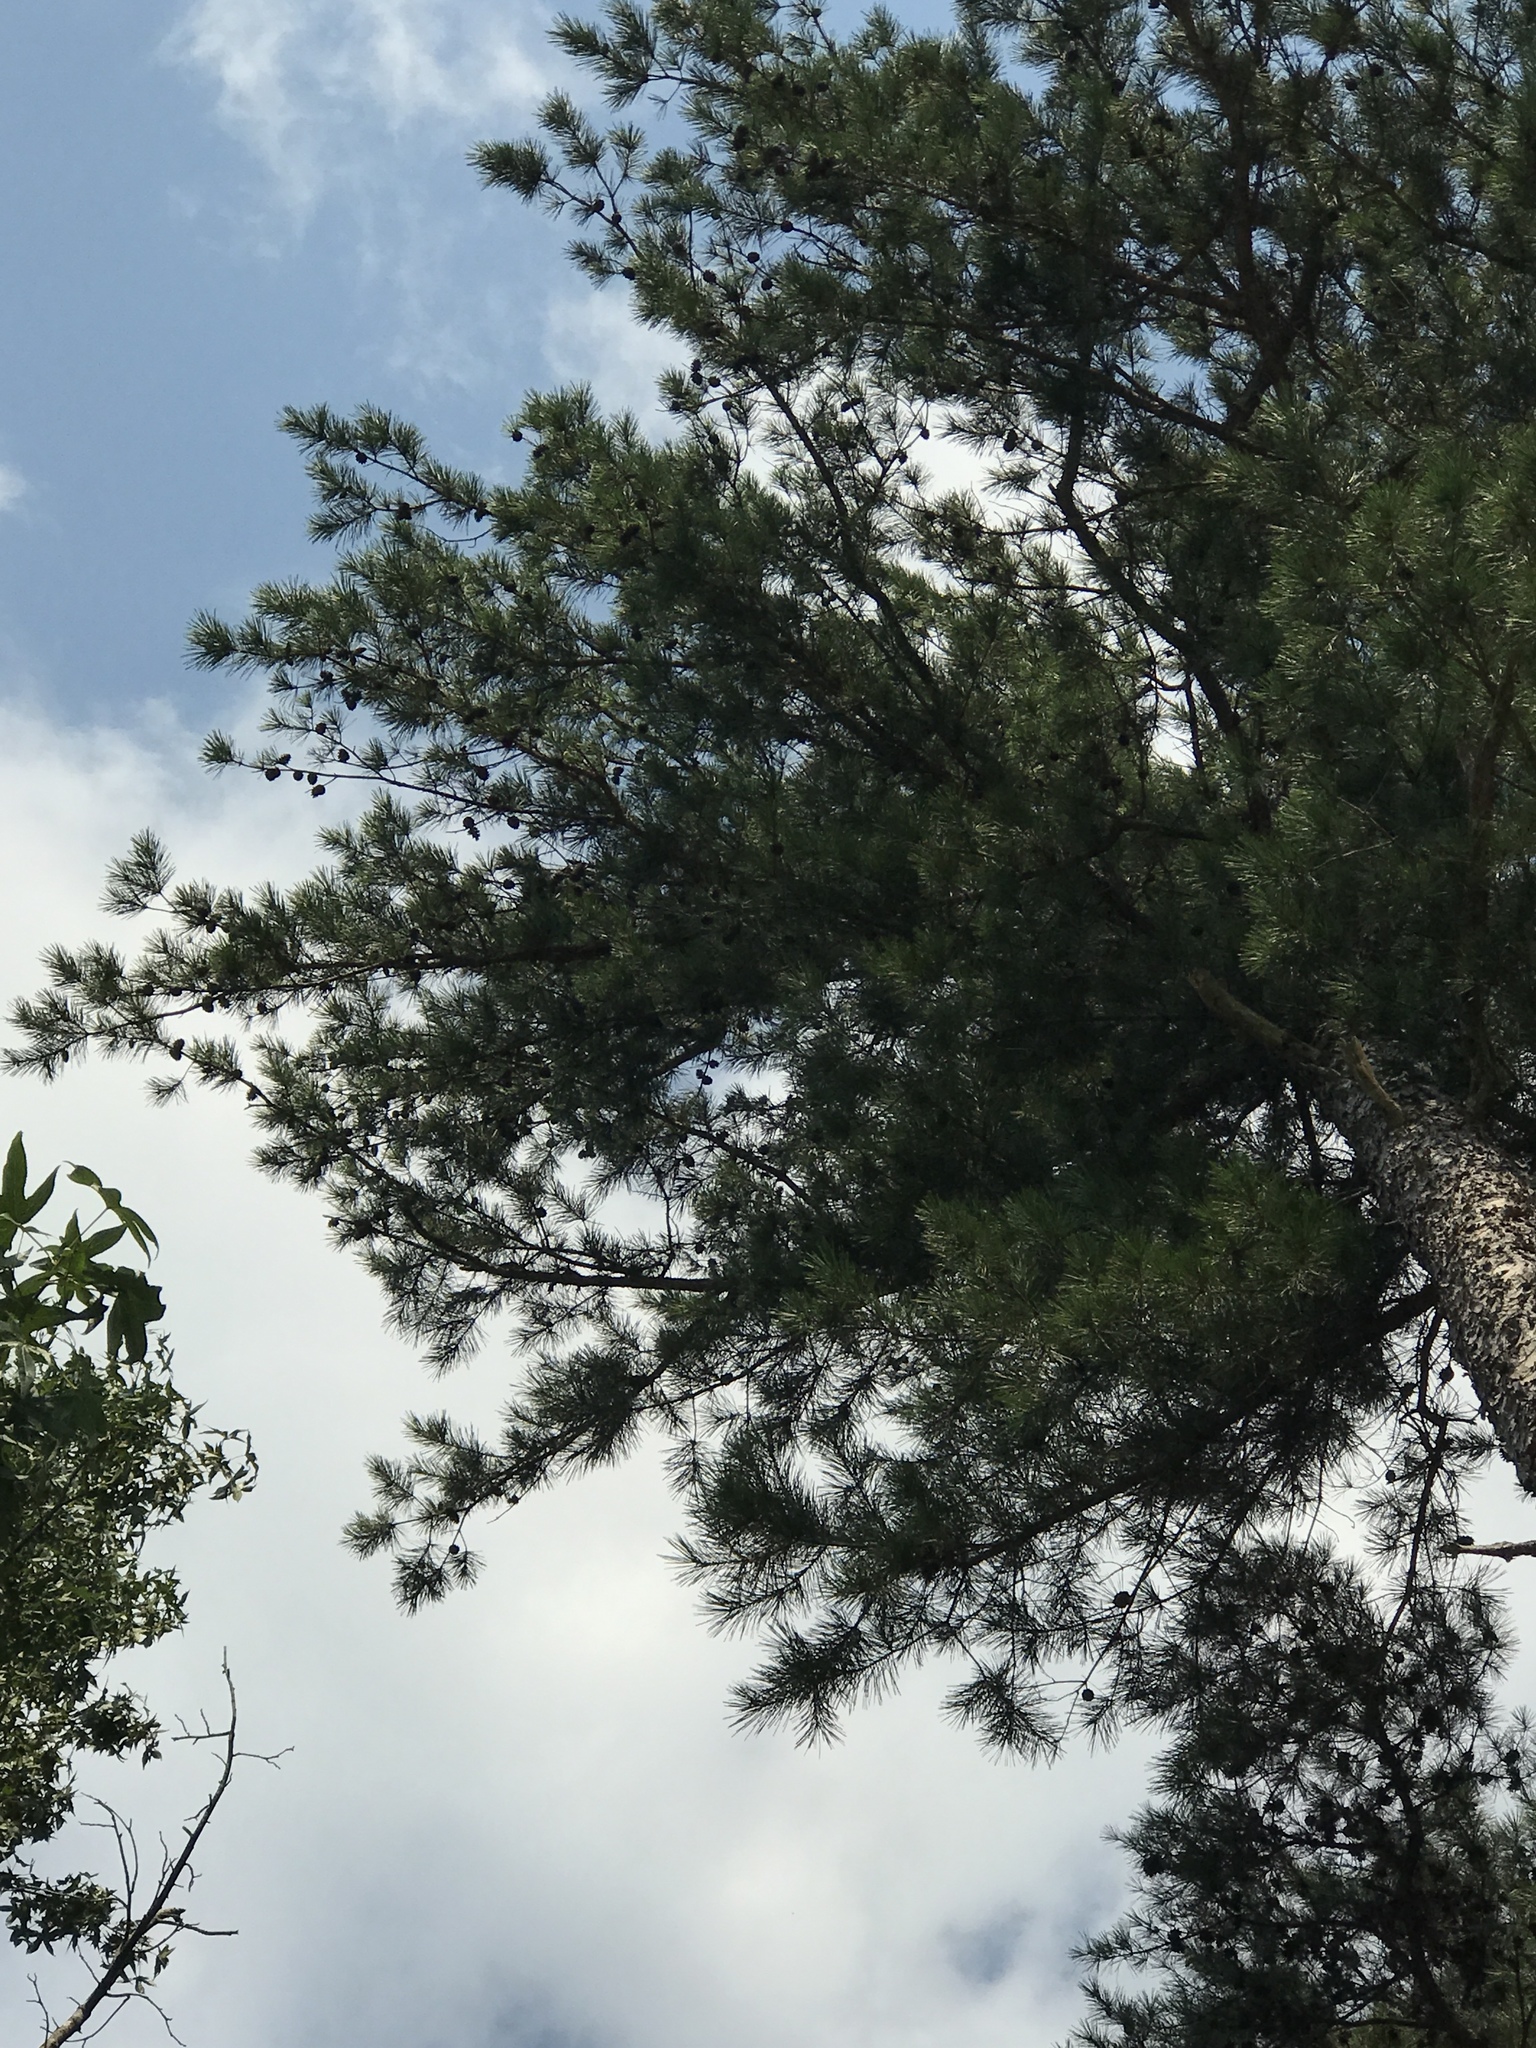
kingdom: Plantae
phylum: Tracheophyta
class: Pinopsida
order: Pinales
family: Pinaceae
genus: Pinus
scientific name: Pinus echinata
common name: Shortleaf pine
